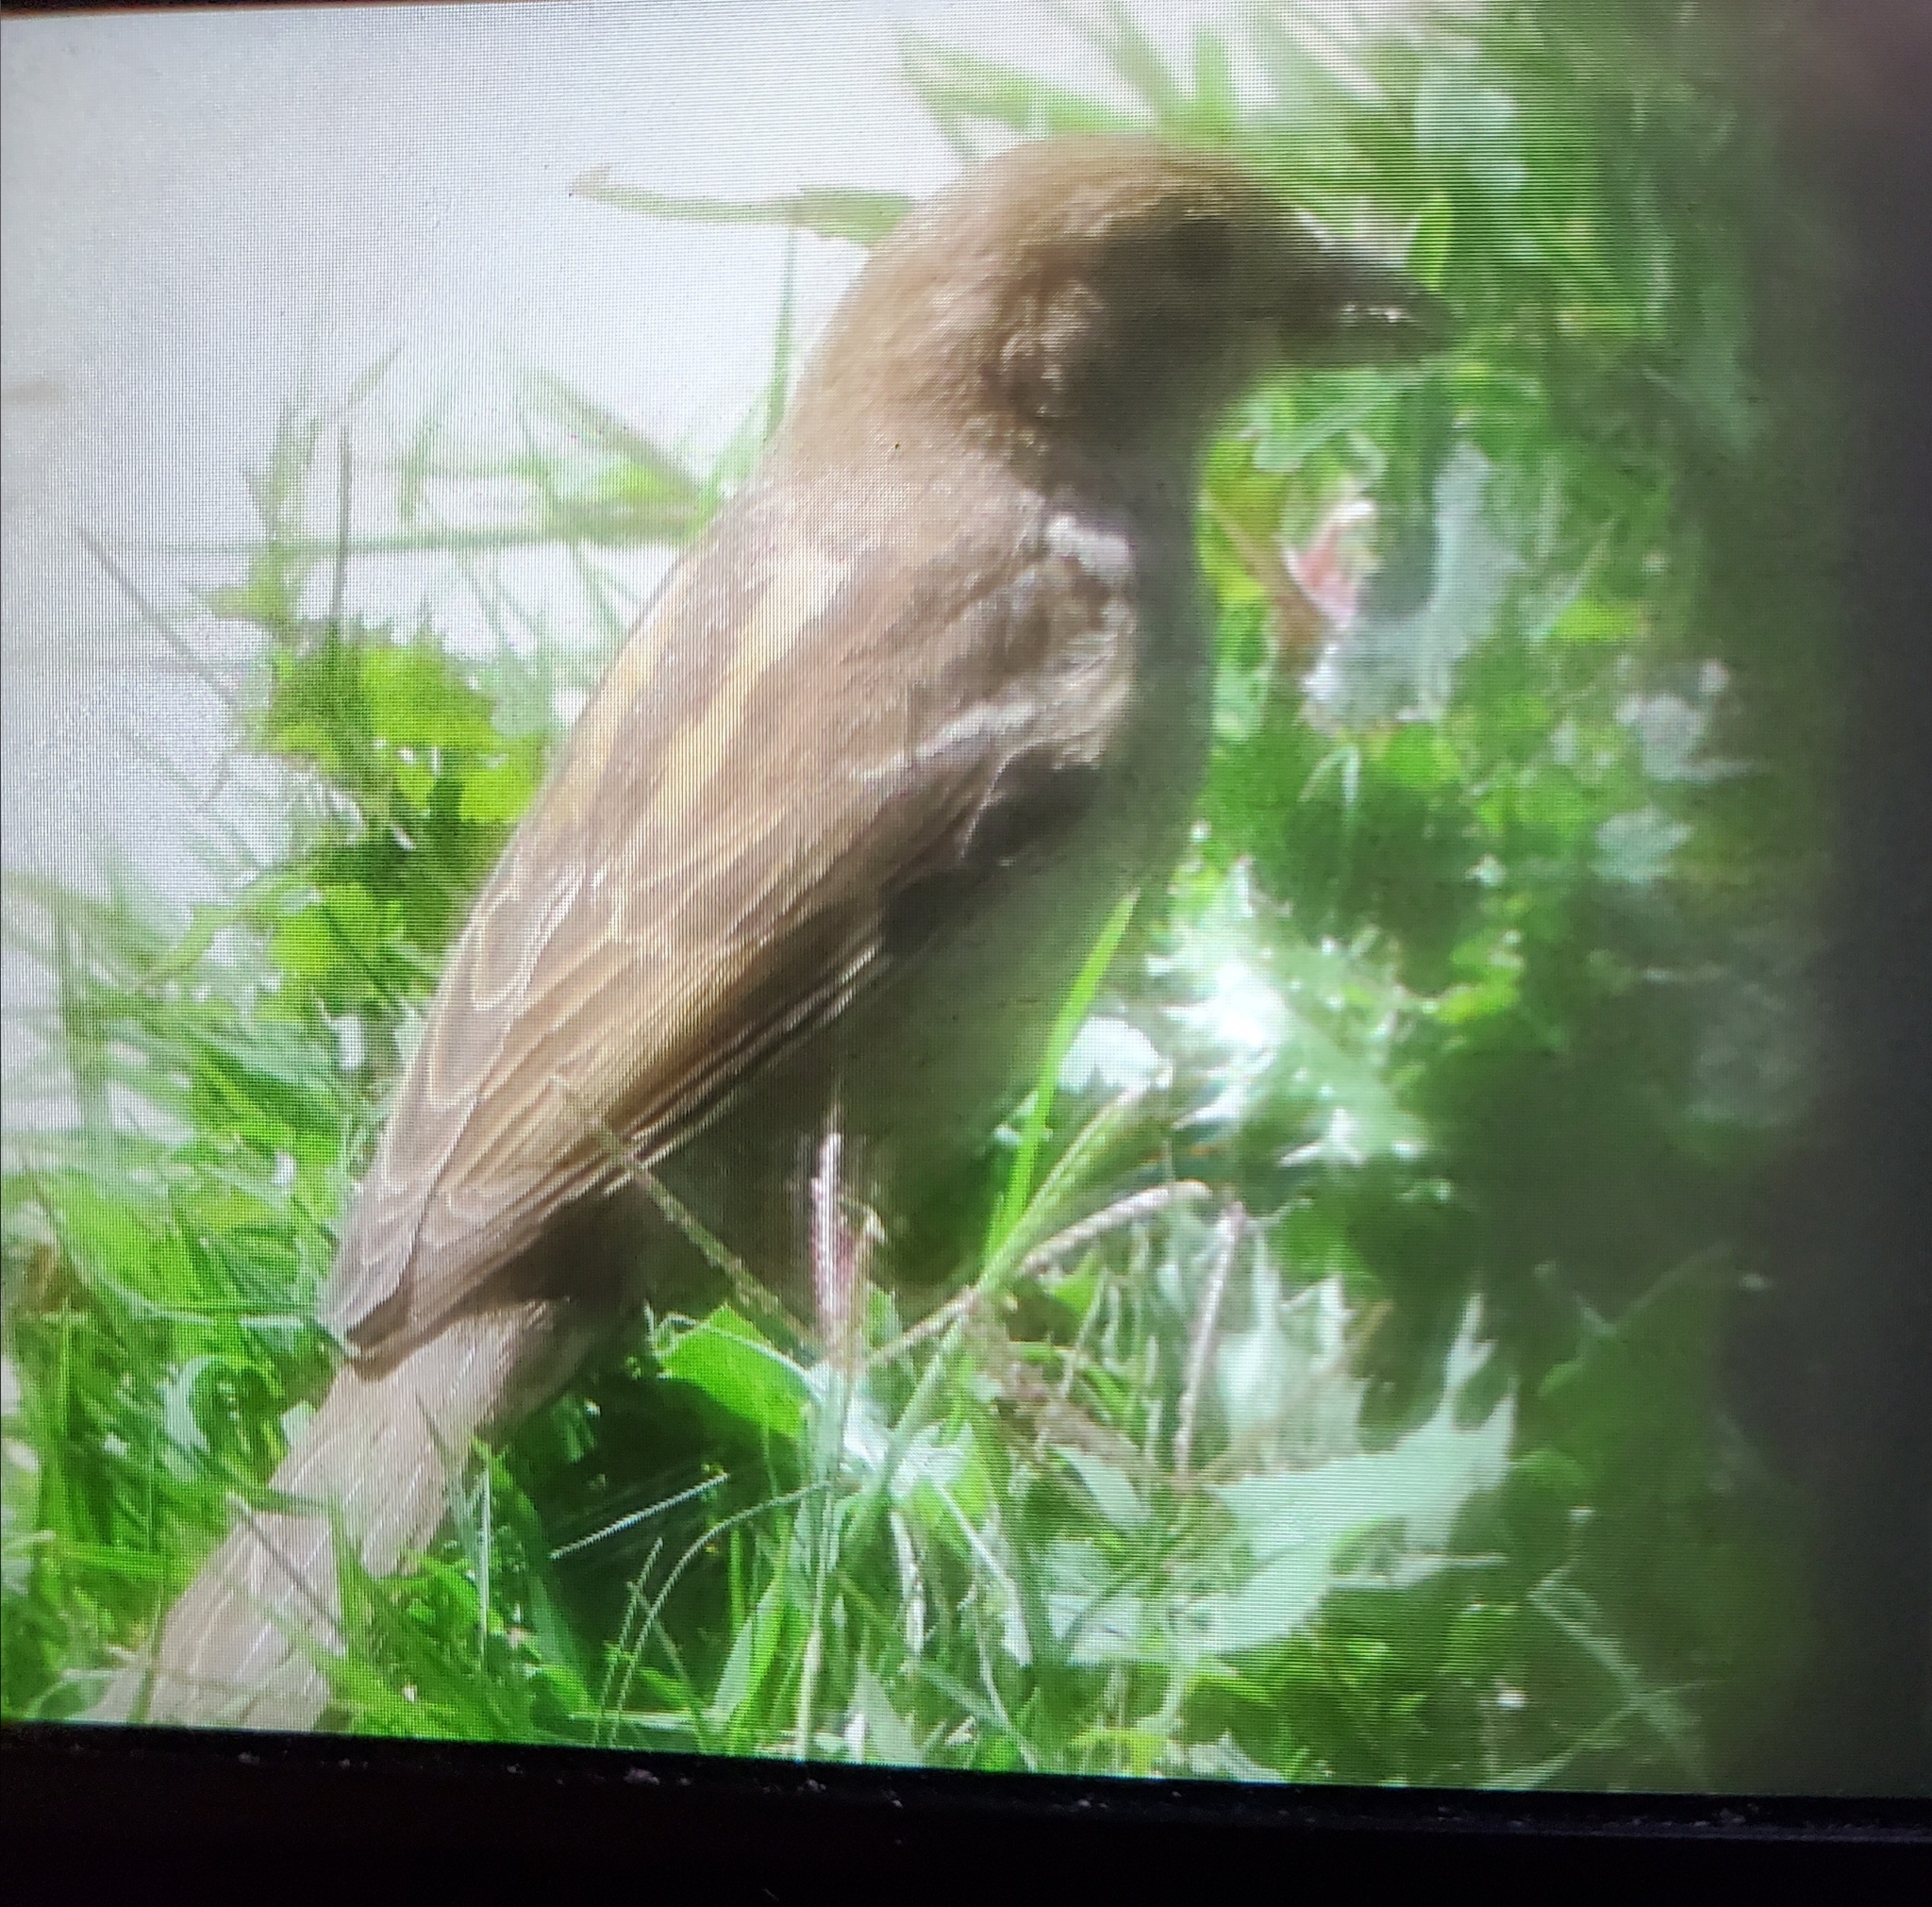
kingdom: Animalia
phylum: Chordata
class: Aves
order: Passeriformes
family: Passeridae
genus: Passer
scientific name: Passer domesticus
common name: House sparrow
